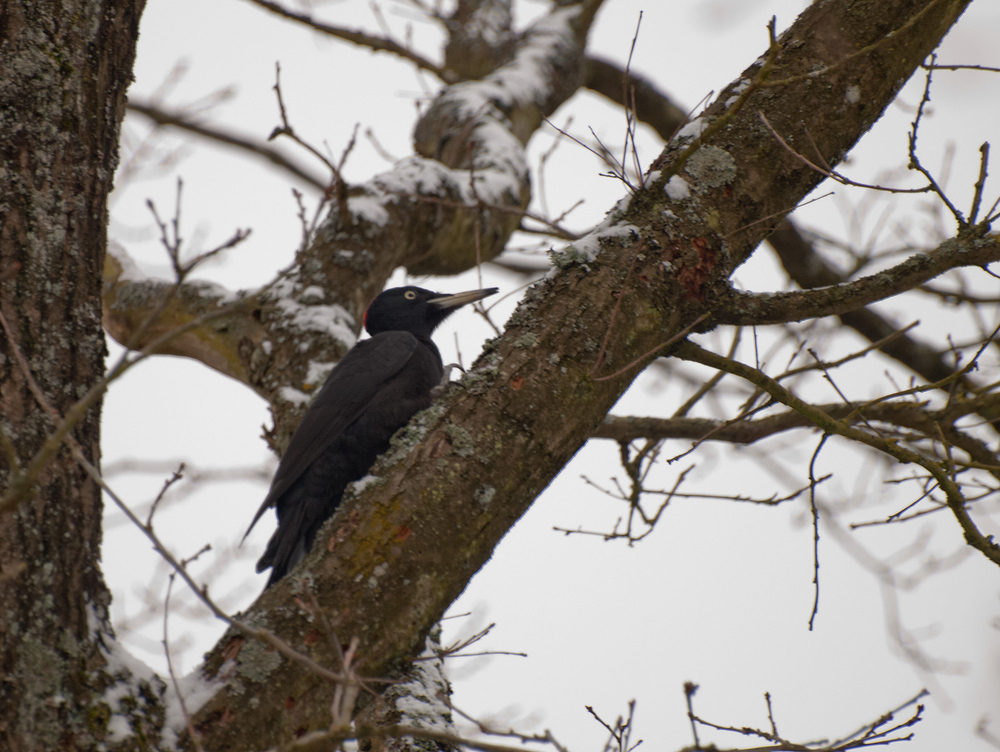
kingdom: Animalia
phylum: Chordata
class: Aves
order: Piciformes
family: Picidae
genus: Dryocopus
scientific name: Dryocopus martius
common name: Black woodpecker
